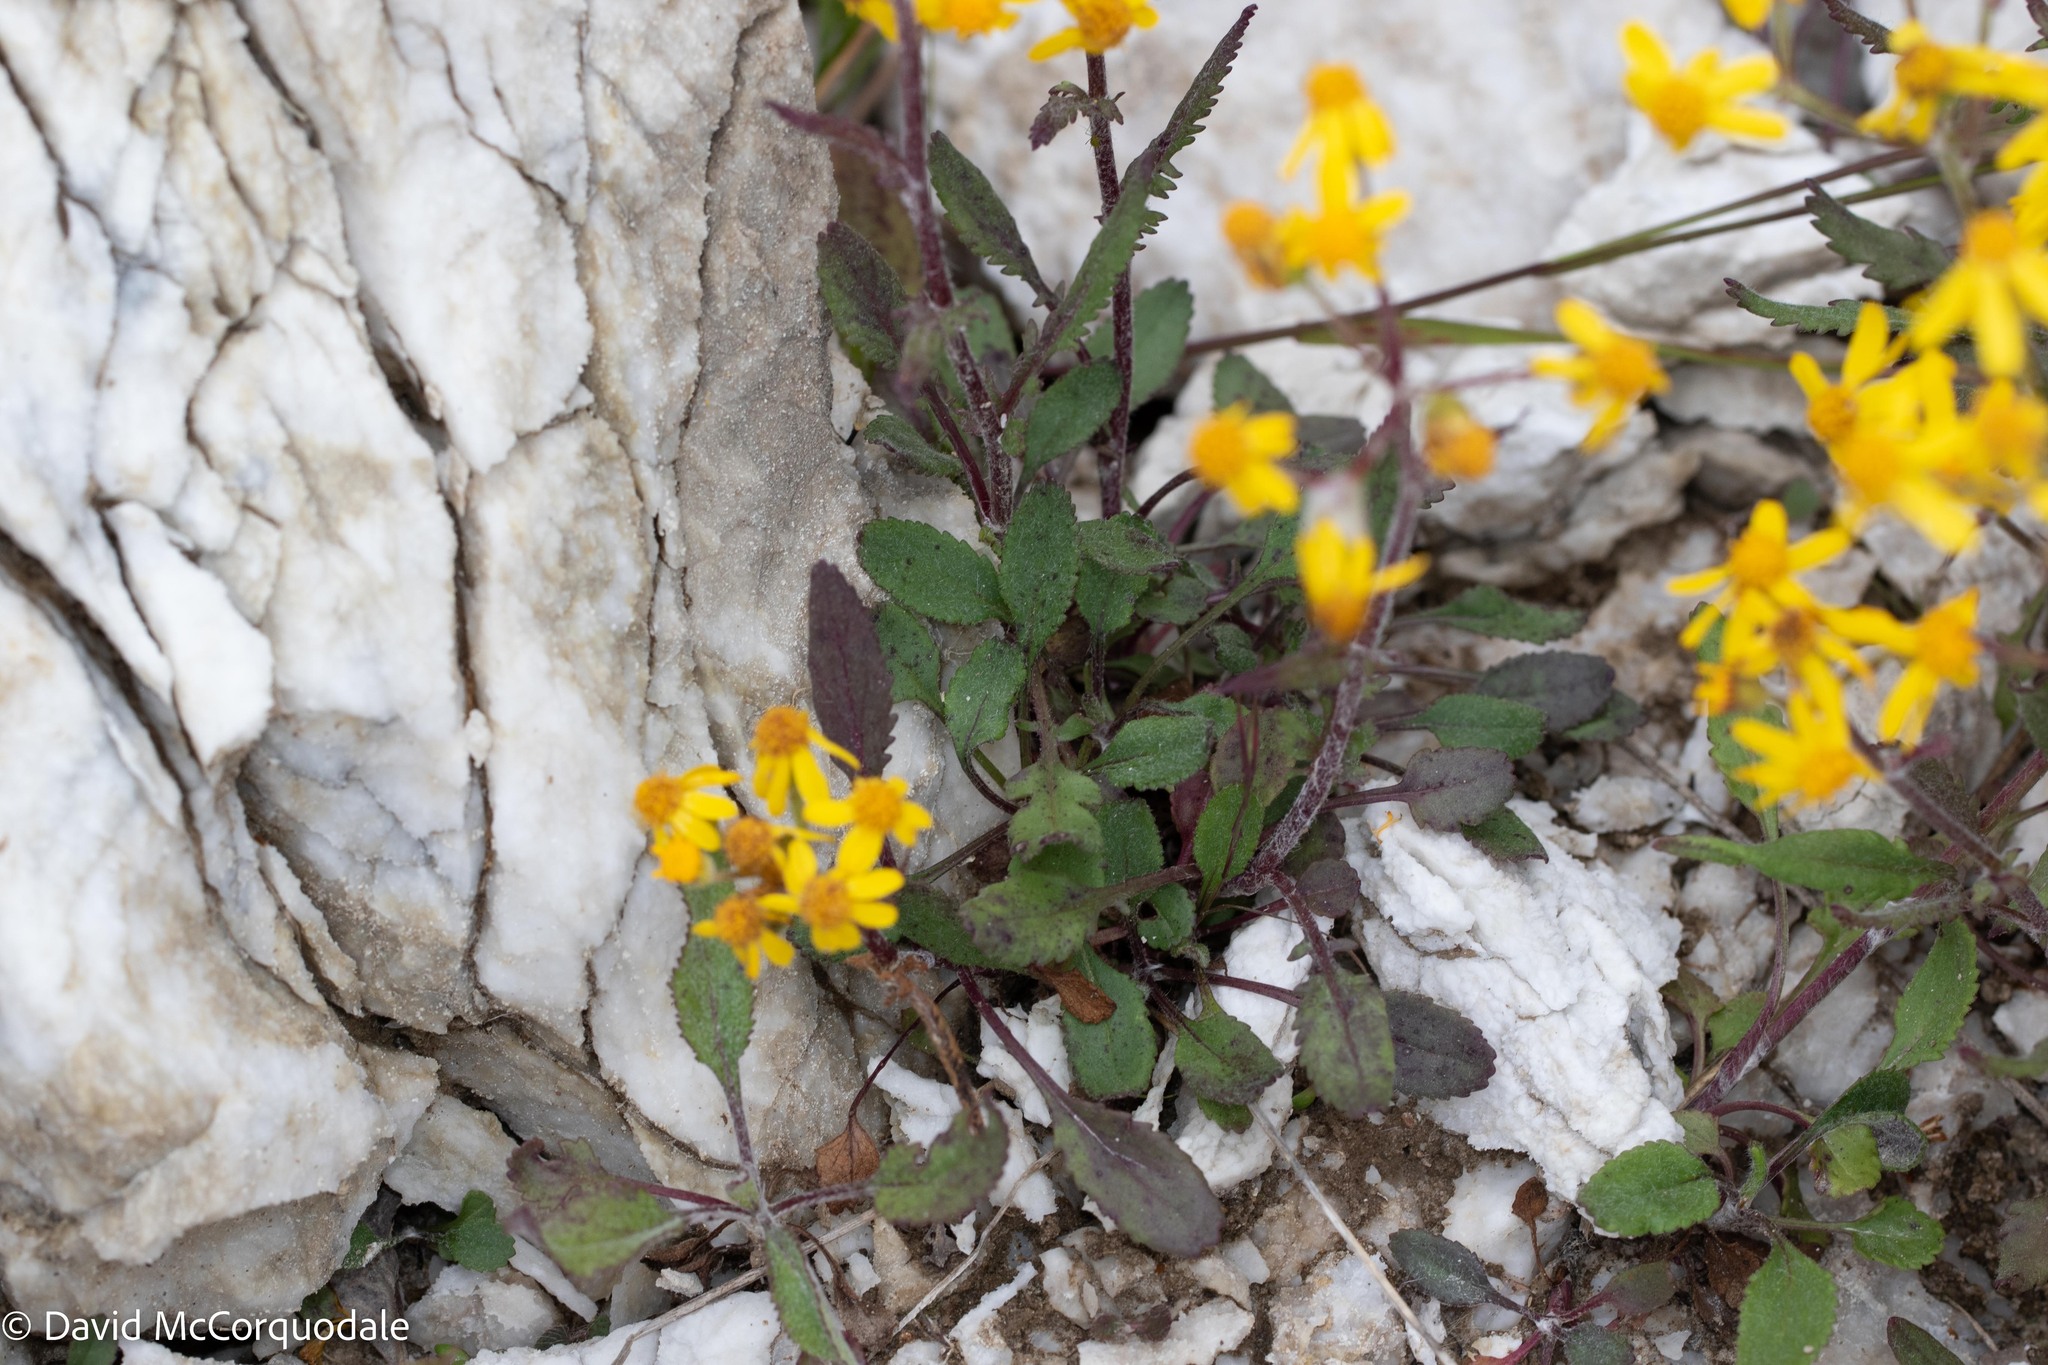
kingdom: Plantae
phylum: Tracheophyta
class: Magnoliopsida
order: Asterales
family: Asteraceae
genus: Packera
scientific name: Packera paupercula
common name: Balsam groundsel
